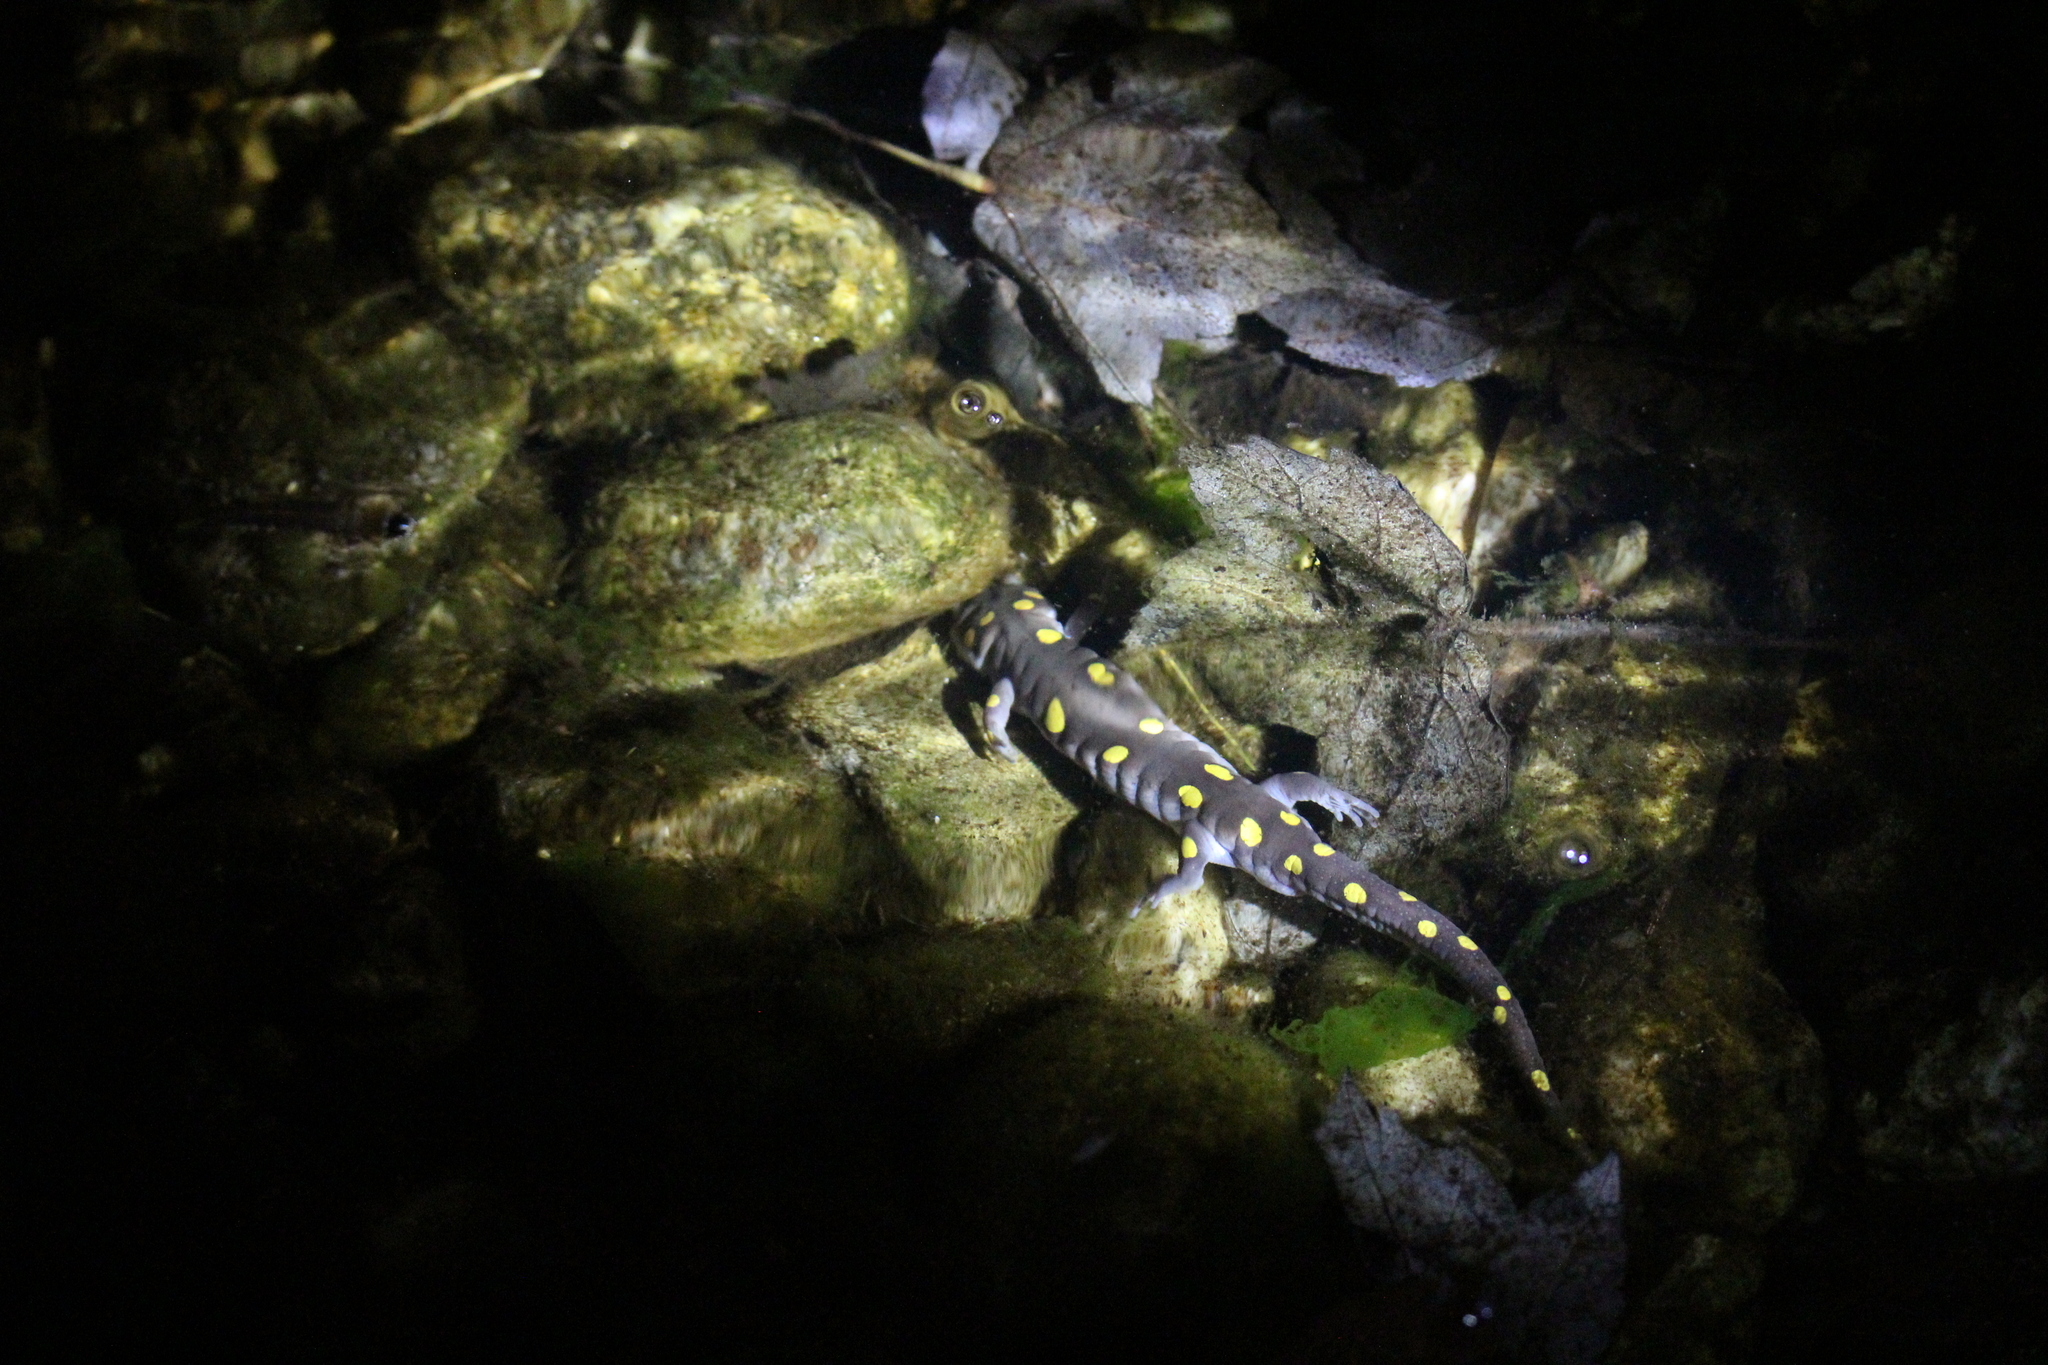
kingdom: Animalia
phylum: Chordata
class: Amphibia
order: Caudata
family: Ambystomatidae
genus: Ambystoma
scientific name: Ambystoma maculatum
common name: Spotted salamander
